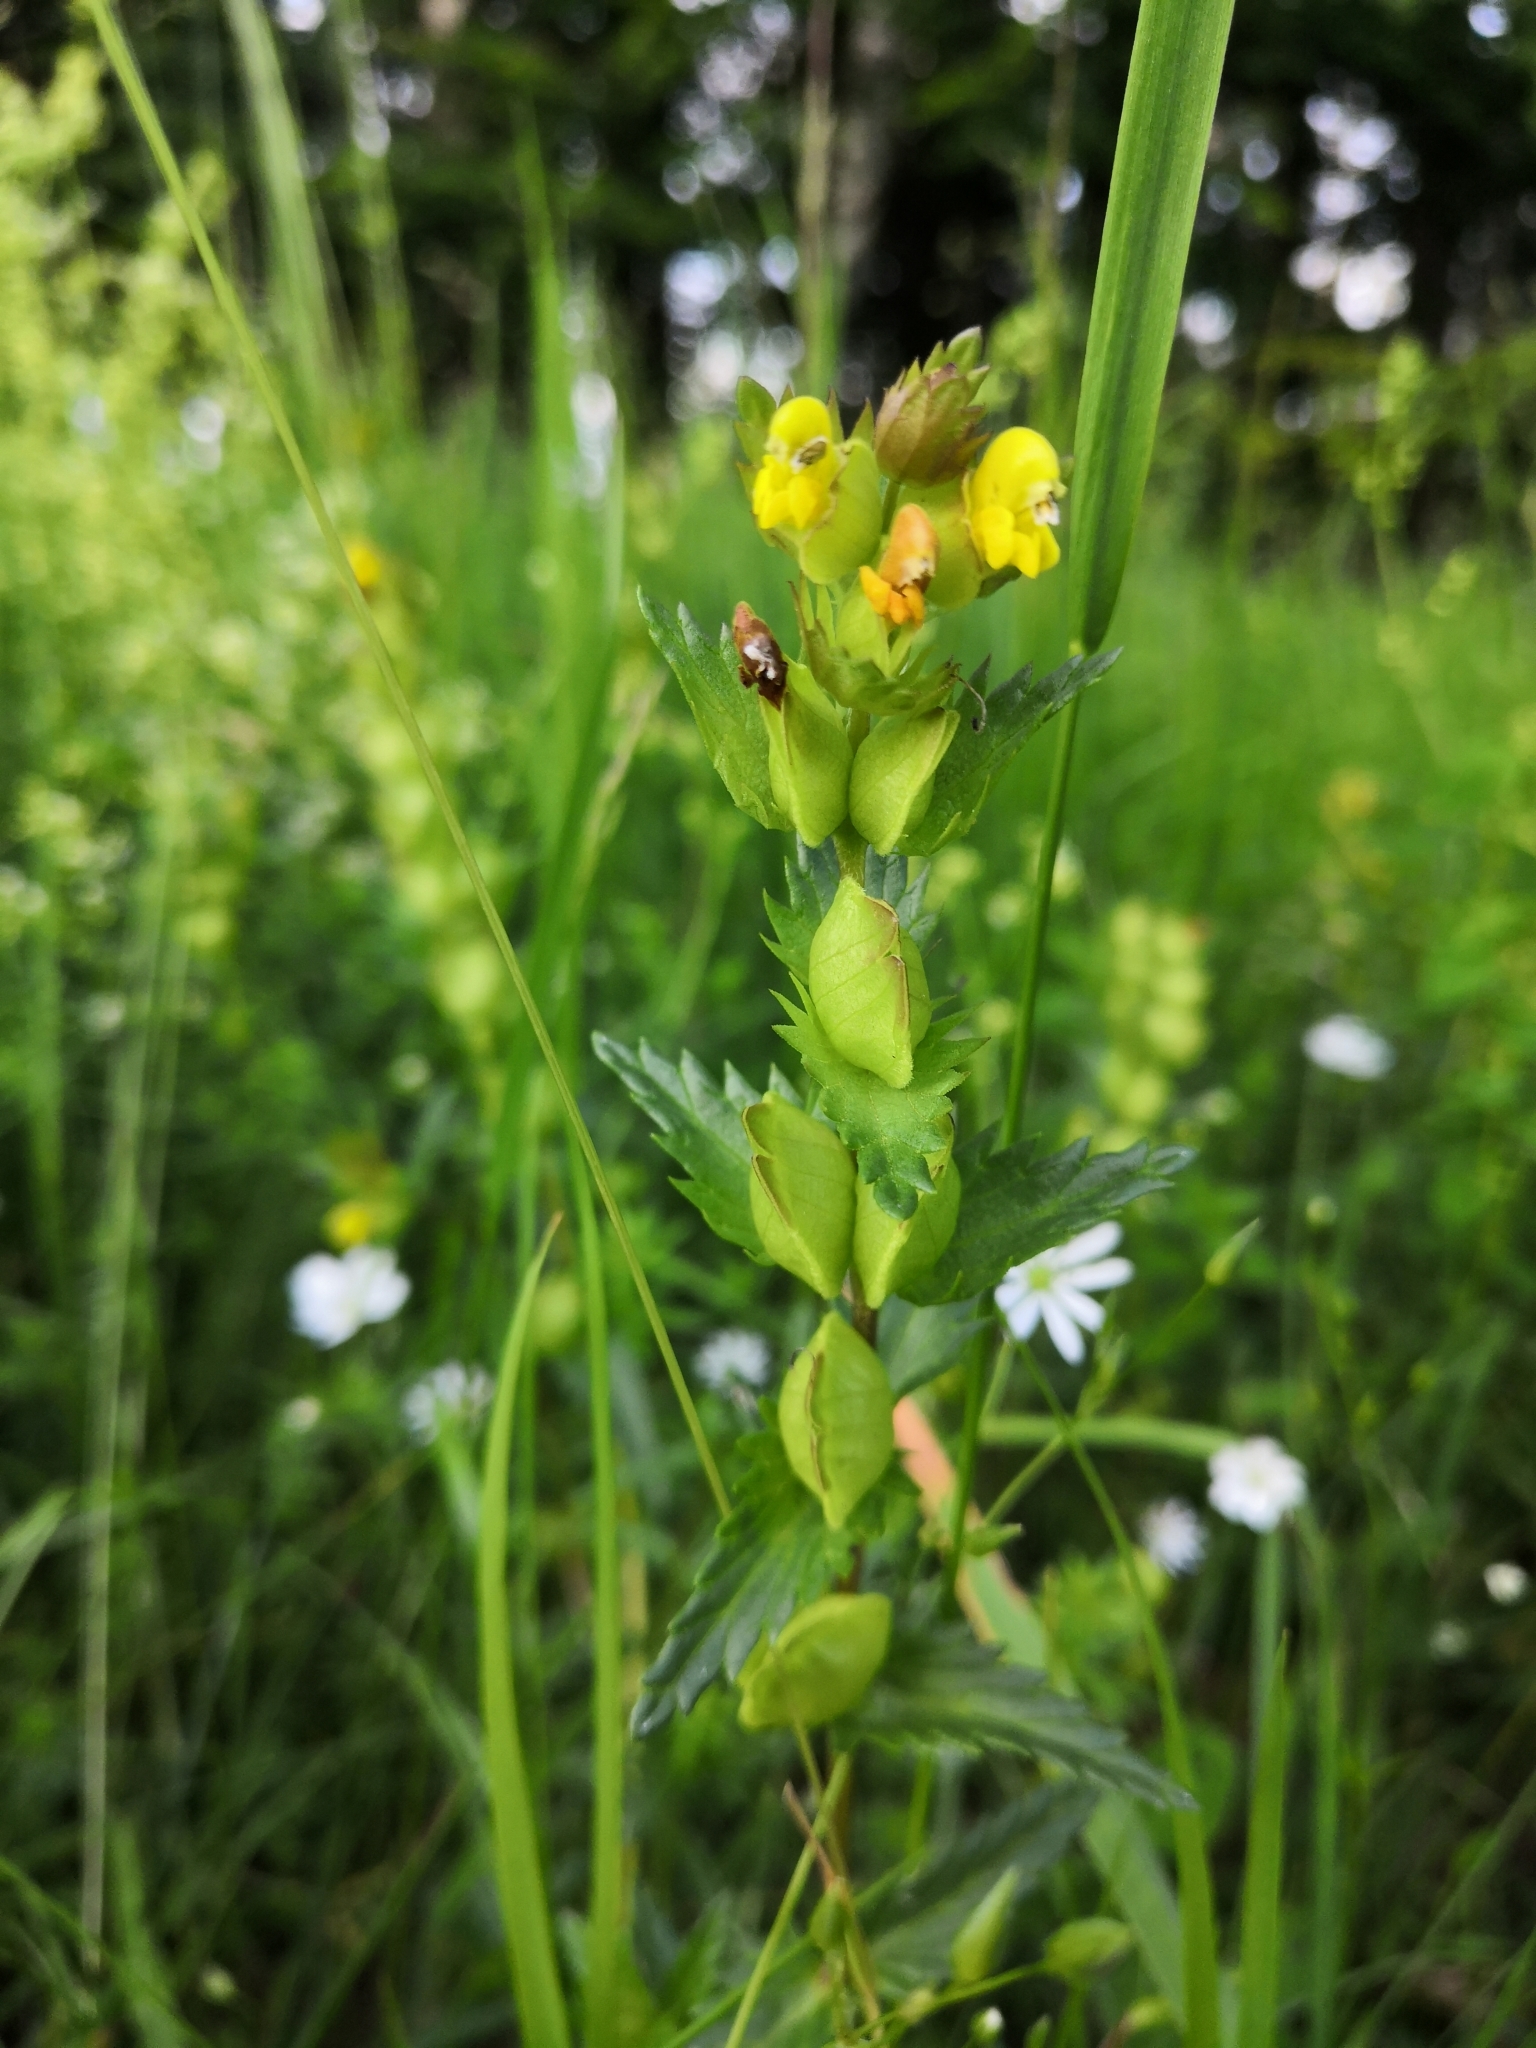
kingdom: Plantae
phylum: Tracheophyta
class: Magnoliopsida
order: Lamiales
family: Orobanchaceae
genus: Rhinanthus
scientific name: Rhinanthus serotinus
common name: Late-flowering yellow rattle
